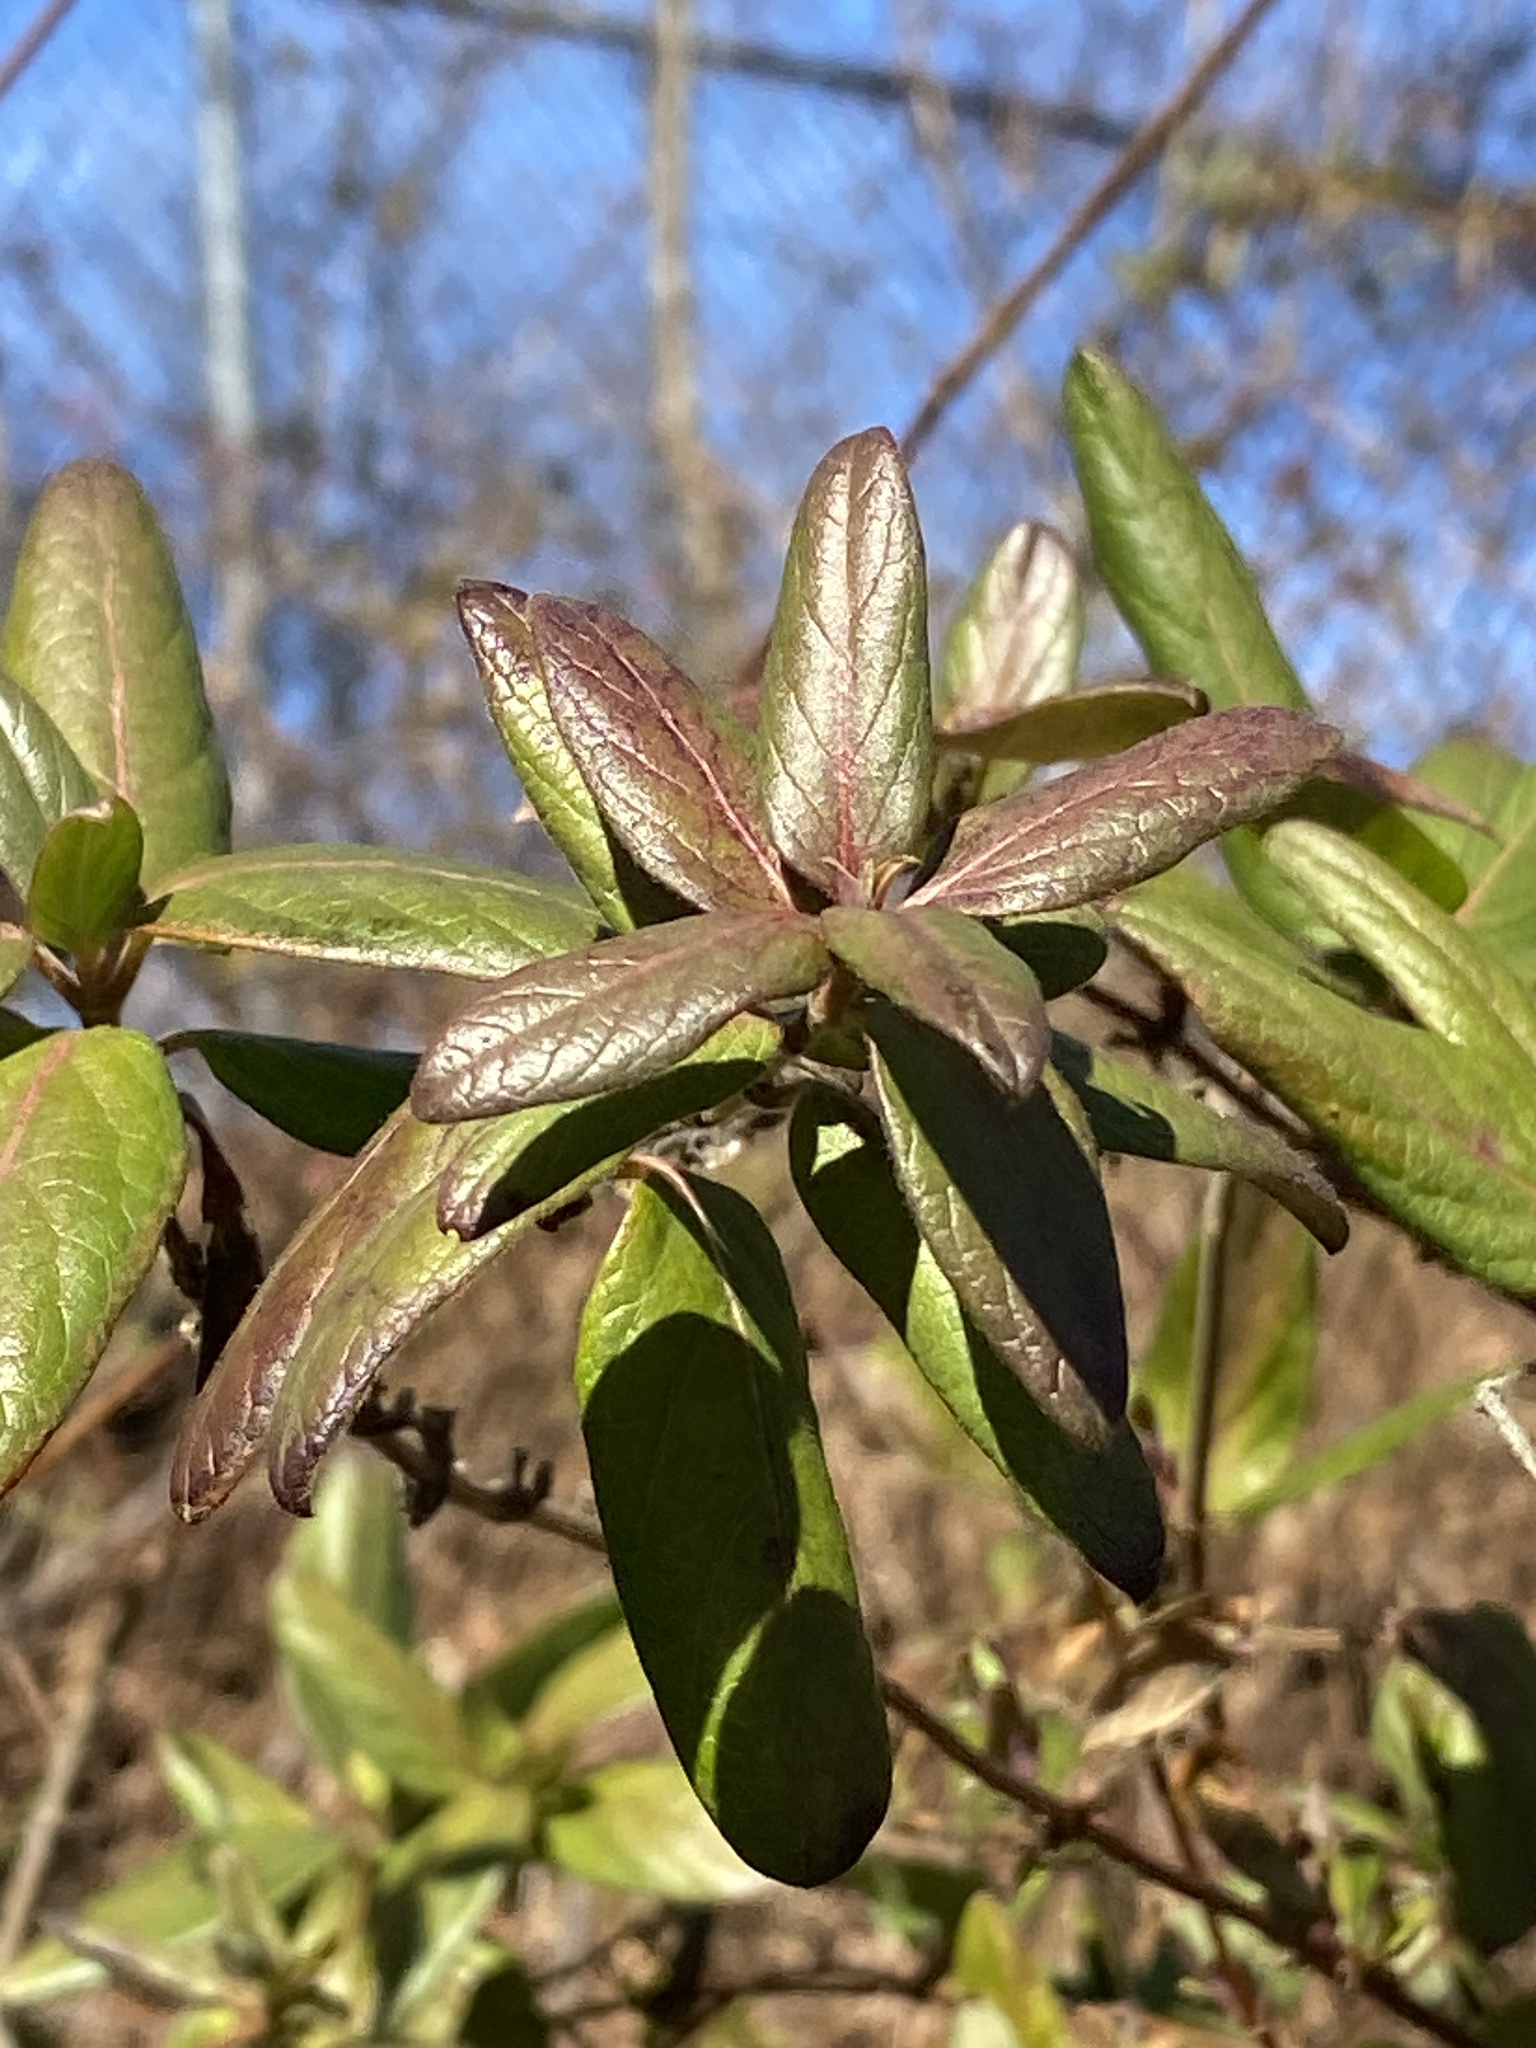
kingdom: Plantae
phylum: Tracheophyta
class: Magnoliopsida
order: Dipsacales
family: Caprifoliaceae
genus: Lonicera
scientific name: Lonicera japonica
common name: Japanese honeysuckle
